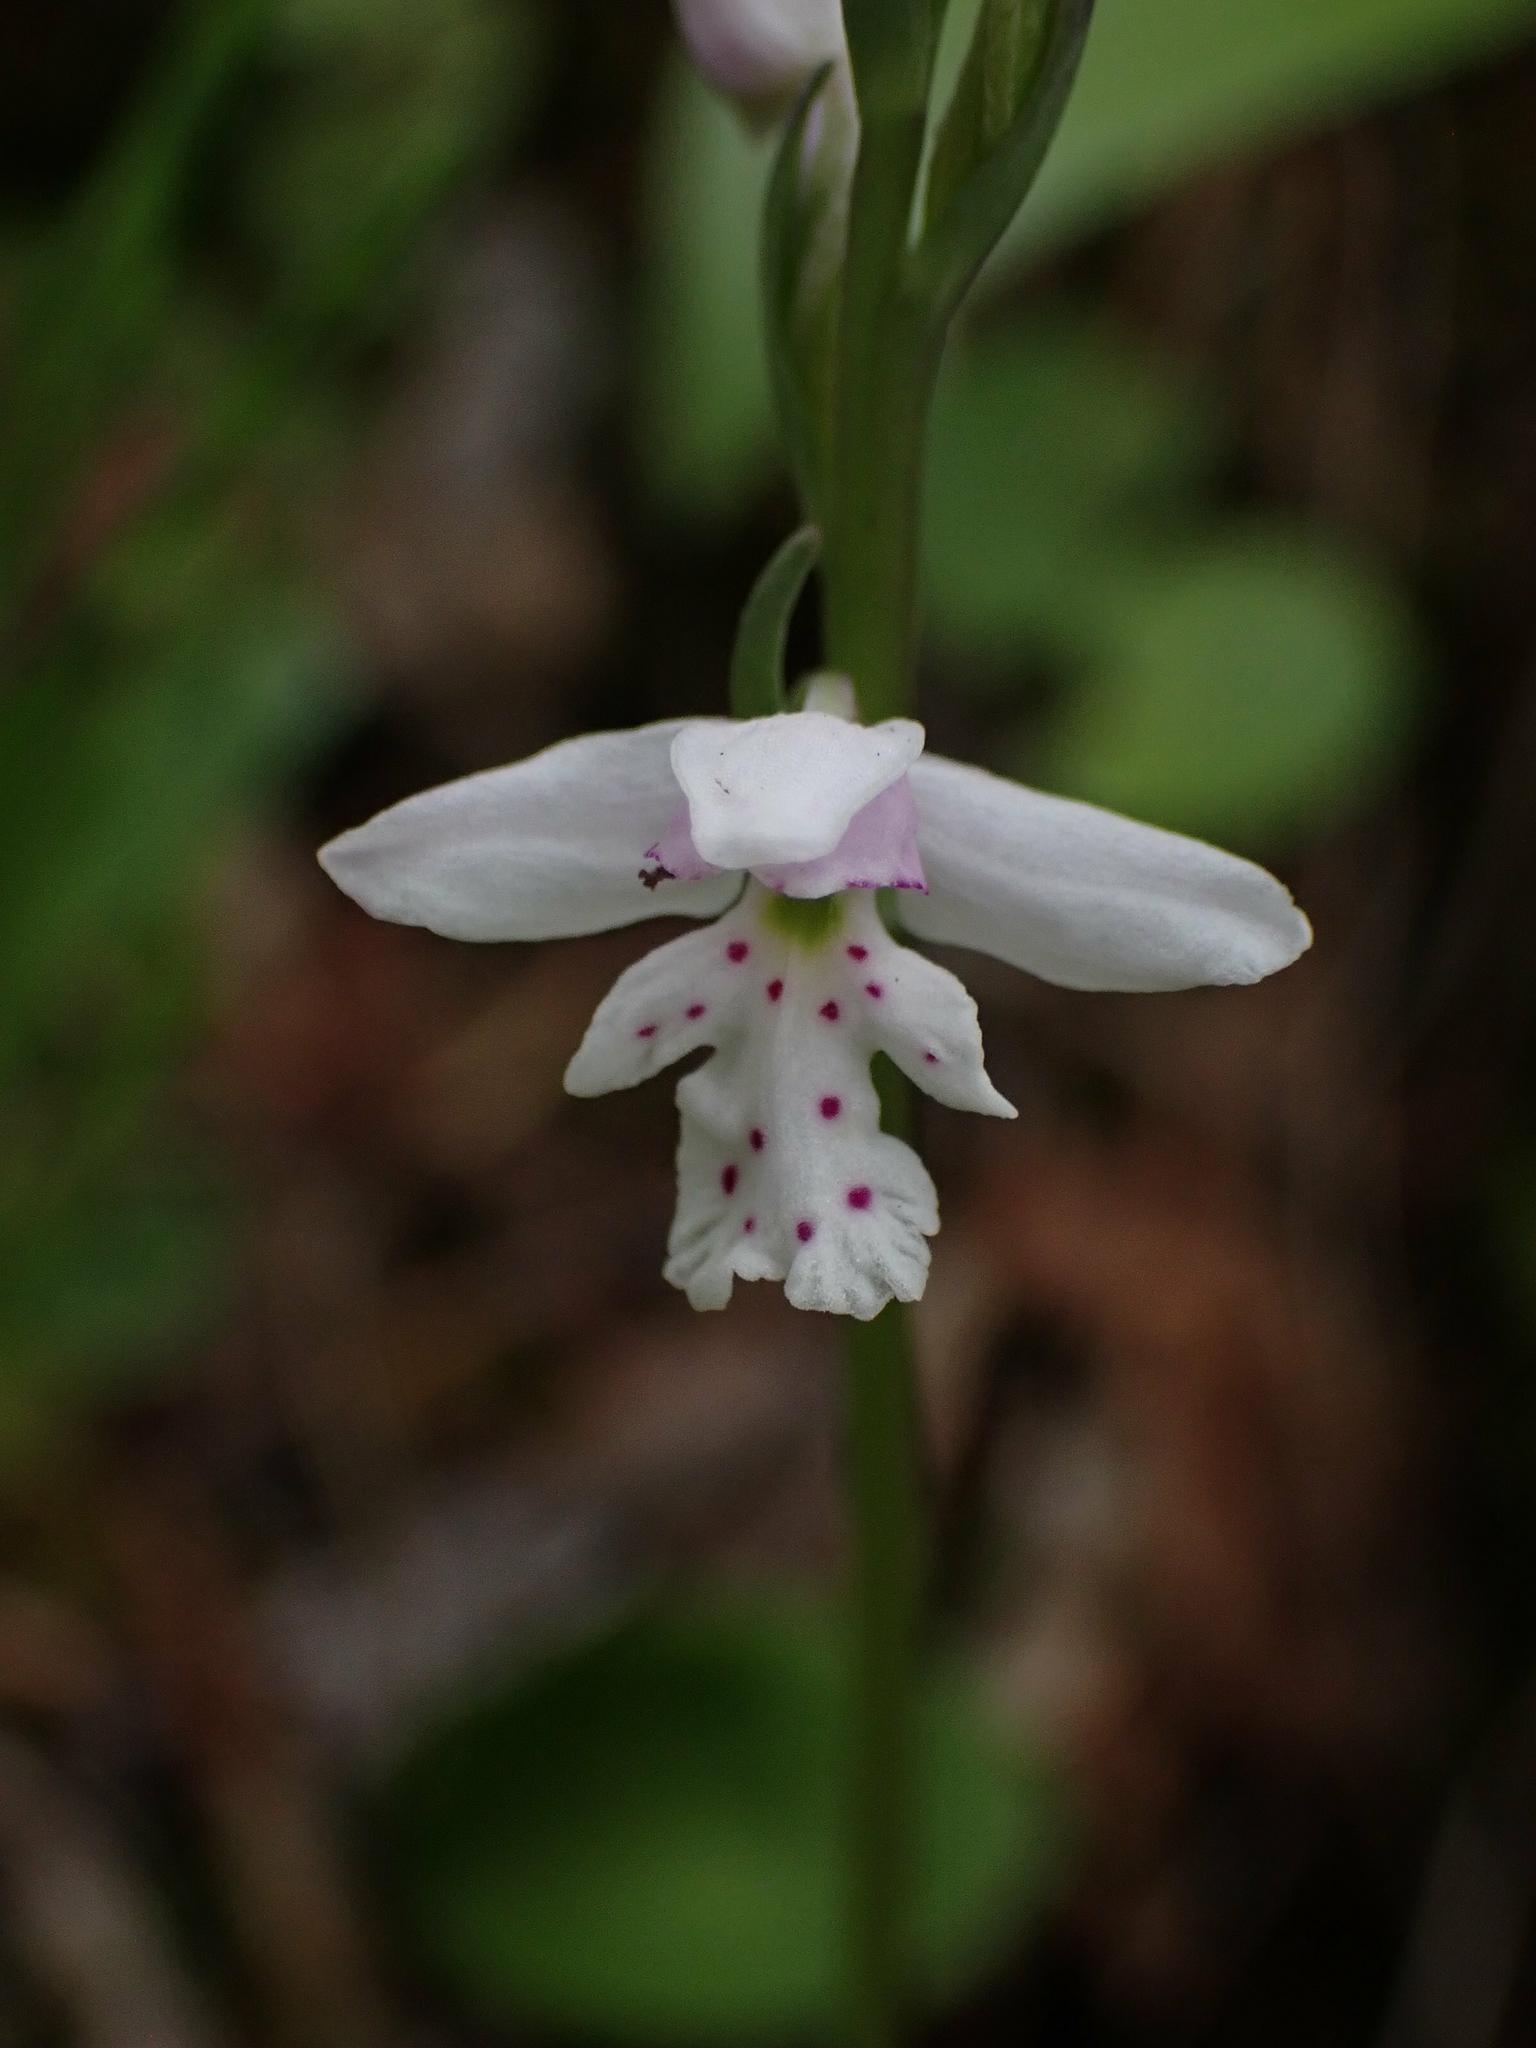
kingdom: Plantae
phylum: Tracheophyta
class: Liliopsida
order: Asparagales
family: Orchidaceae
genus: Galearis
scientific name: Galearis rotundifolia
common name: One-leaved orchis
